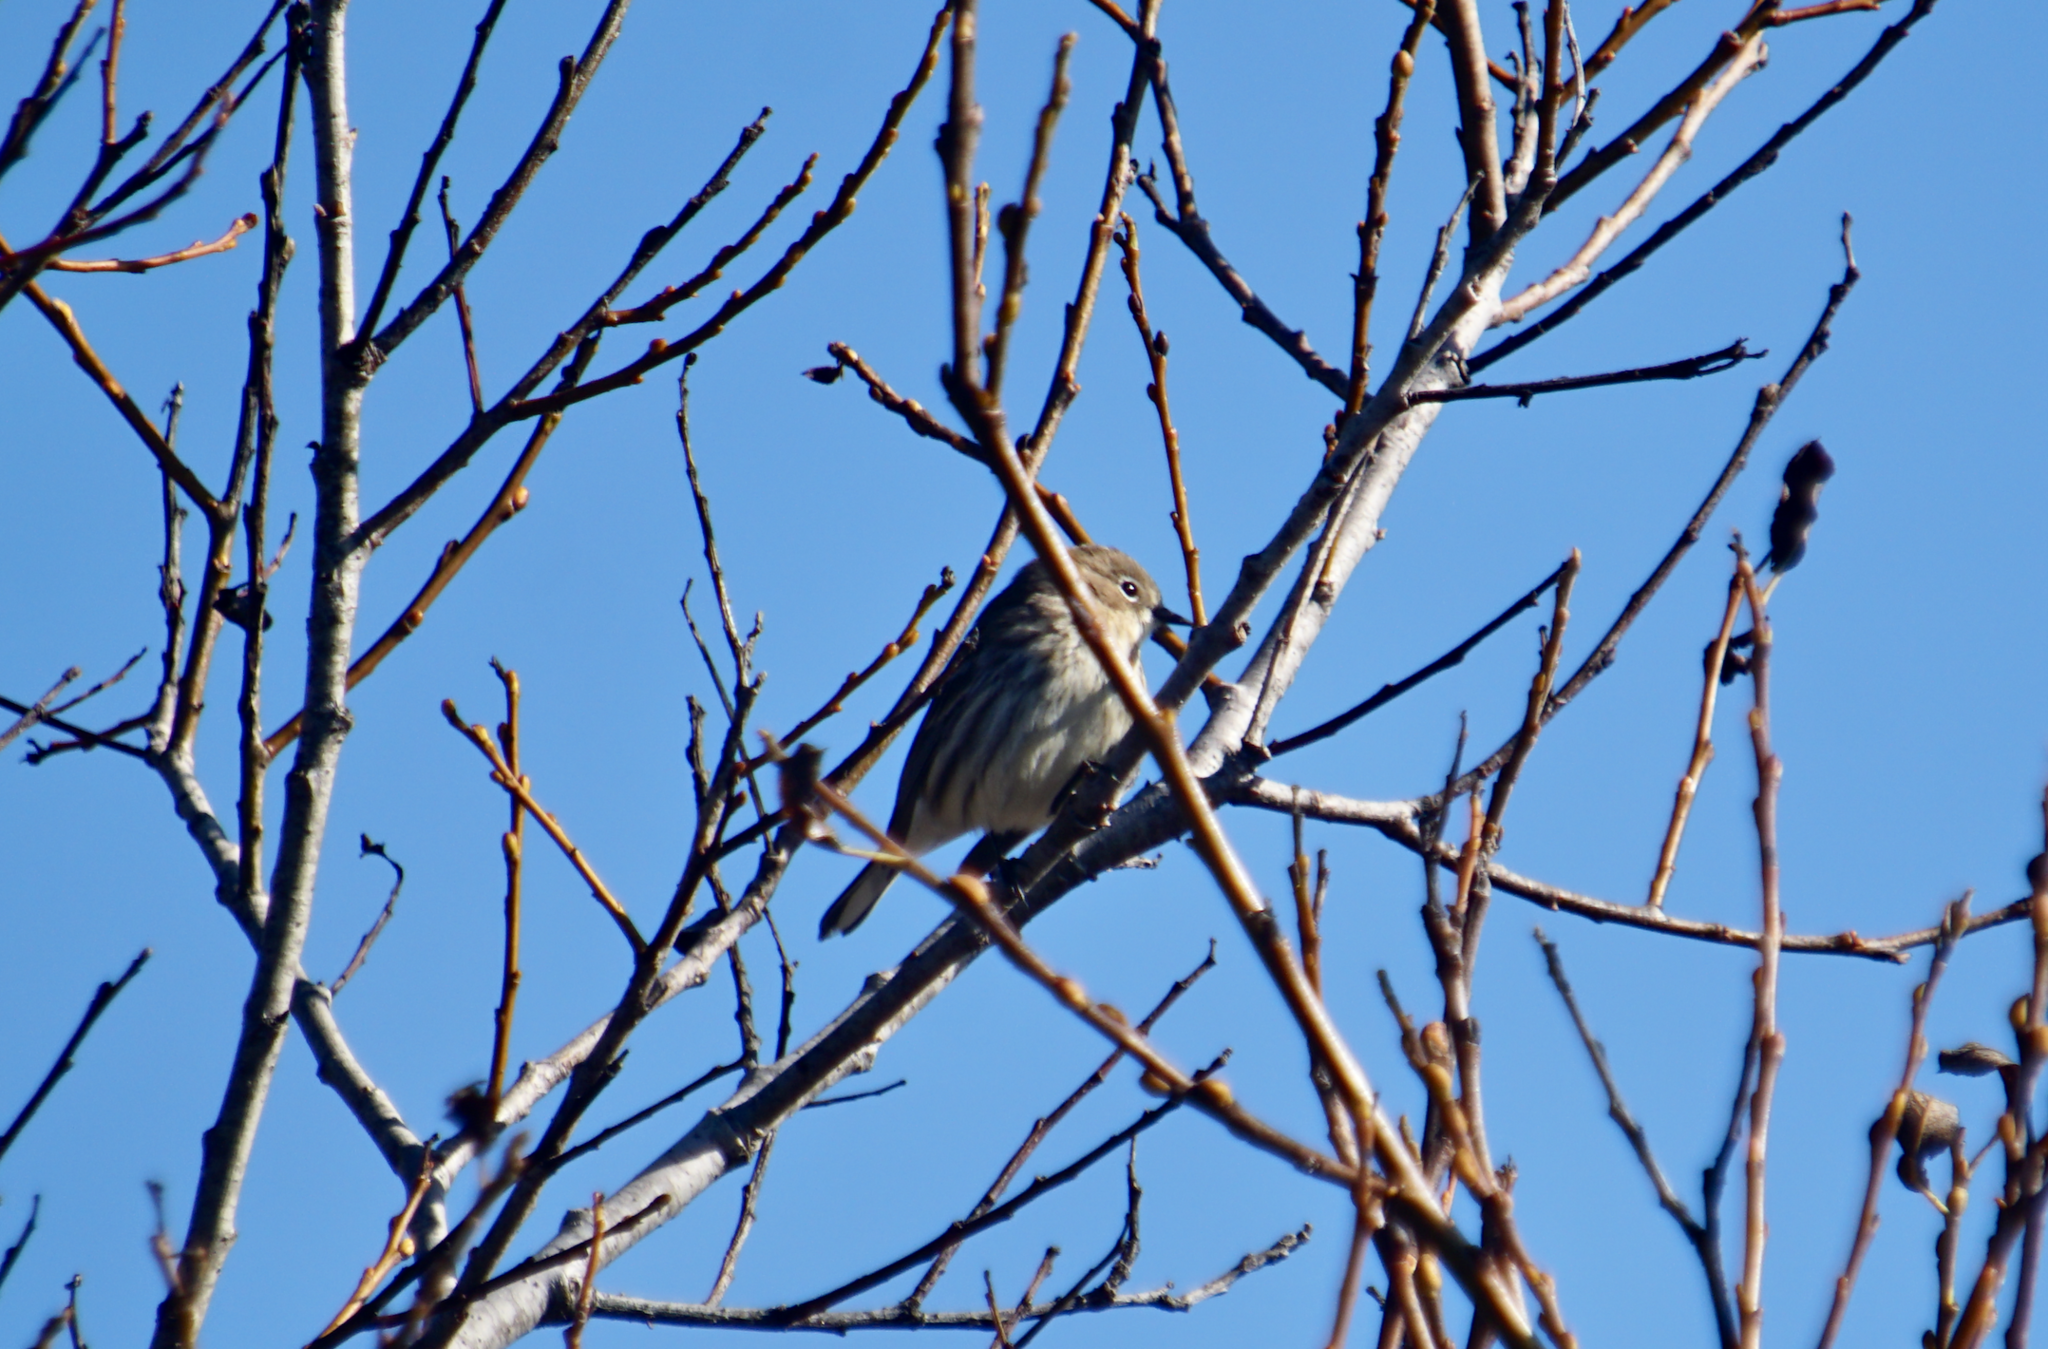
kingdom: Animalia
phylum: Chordata
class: Aves
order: Passeriformes
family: Parulidae
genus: Setophaga
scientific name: Setophaga coronata
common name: Myrtle warbler
